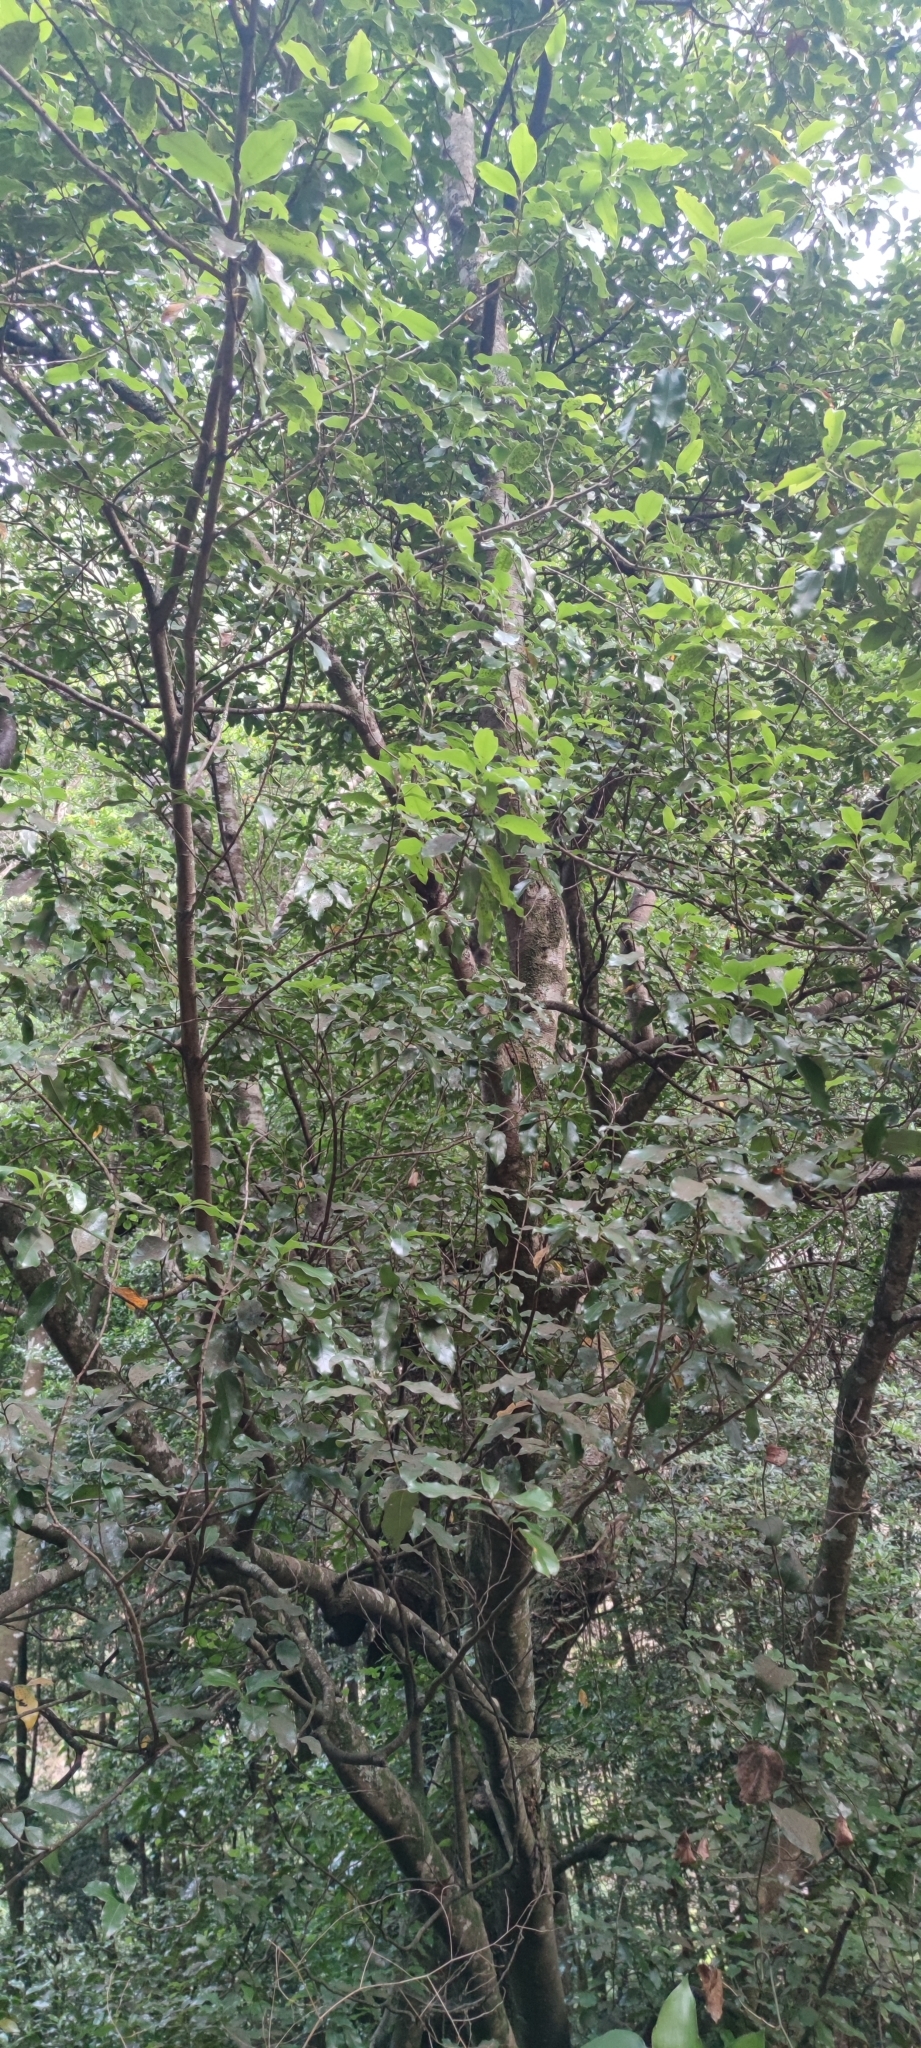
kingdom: Plantae
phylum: Tracheophyta
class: Magnoliopsida
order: Laurales
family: Lauraceae
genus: Mespilodaphne
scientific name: Mespilodaphne foetens
